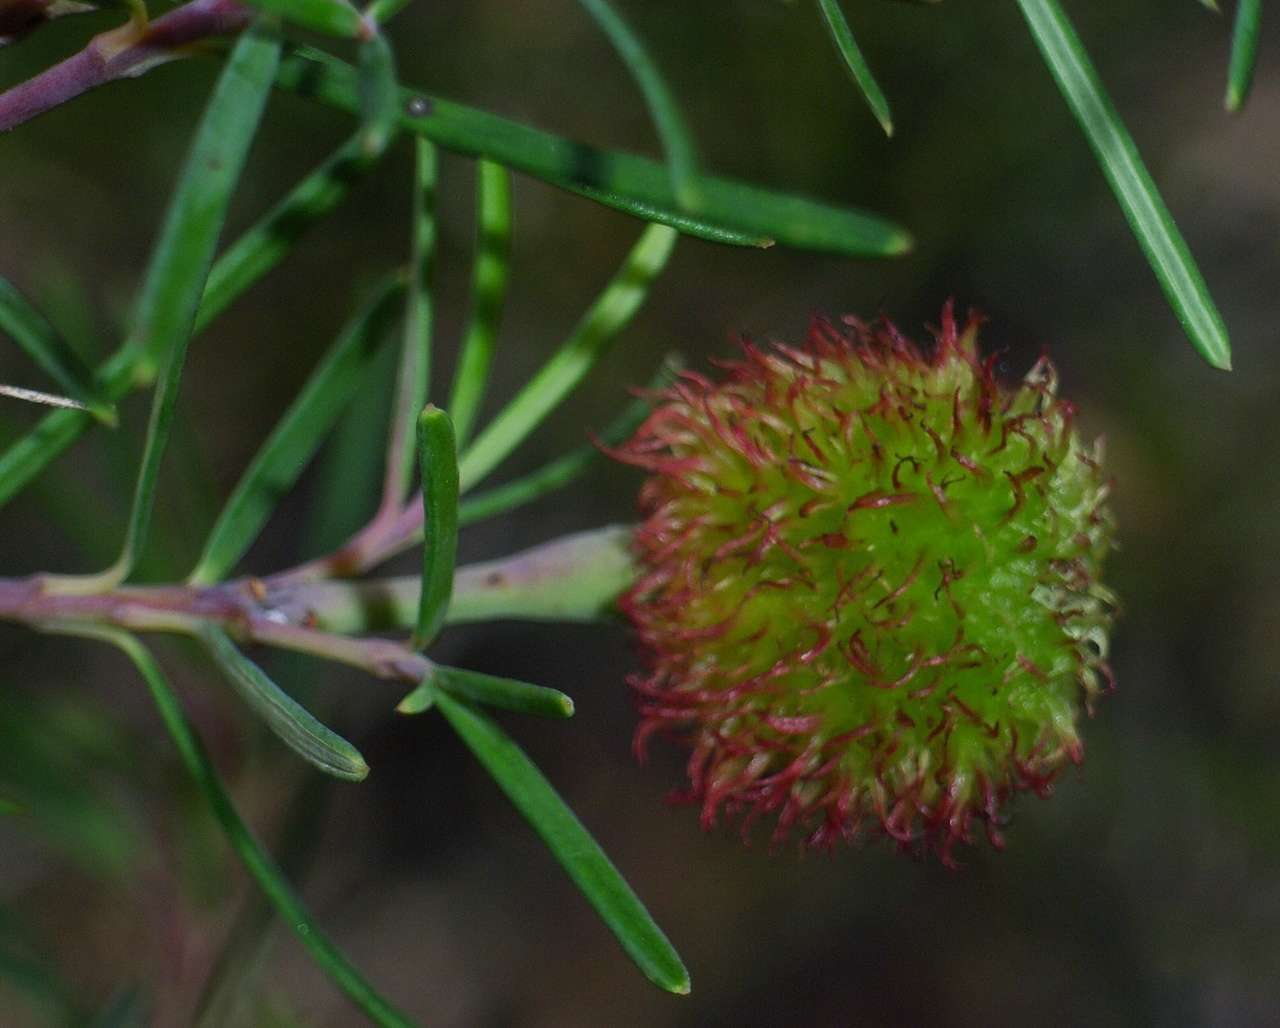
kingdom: Plantae
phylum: Tracheophyta
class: Magnoliopsida
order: Malpighiales
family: Euphorbiaceae
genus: Ricinocarpos
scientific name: Ricinocarpos pinifolius
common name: Weddingbush
